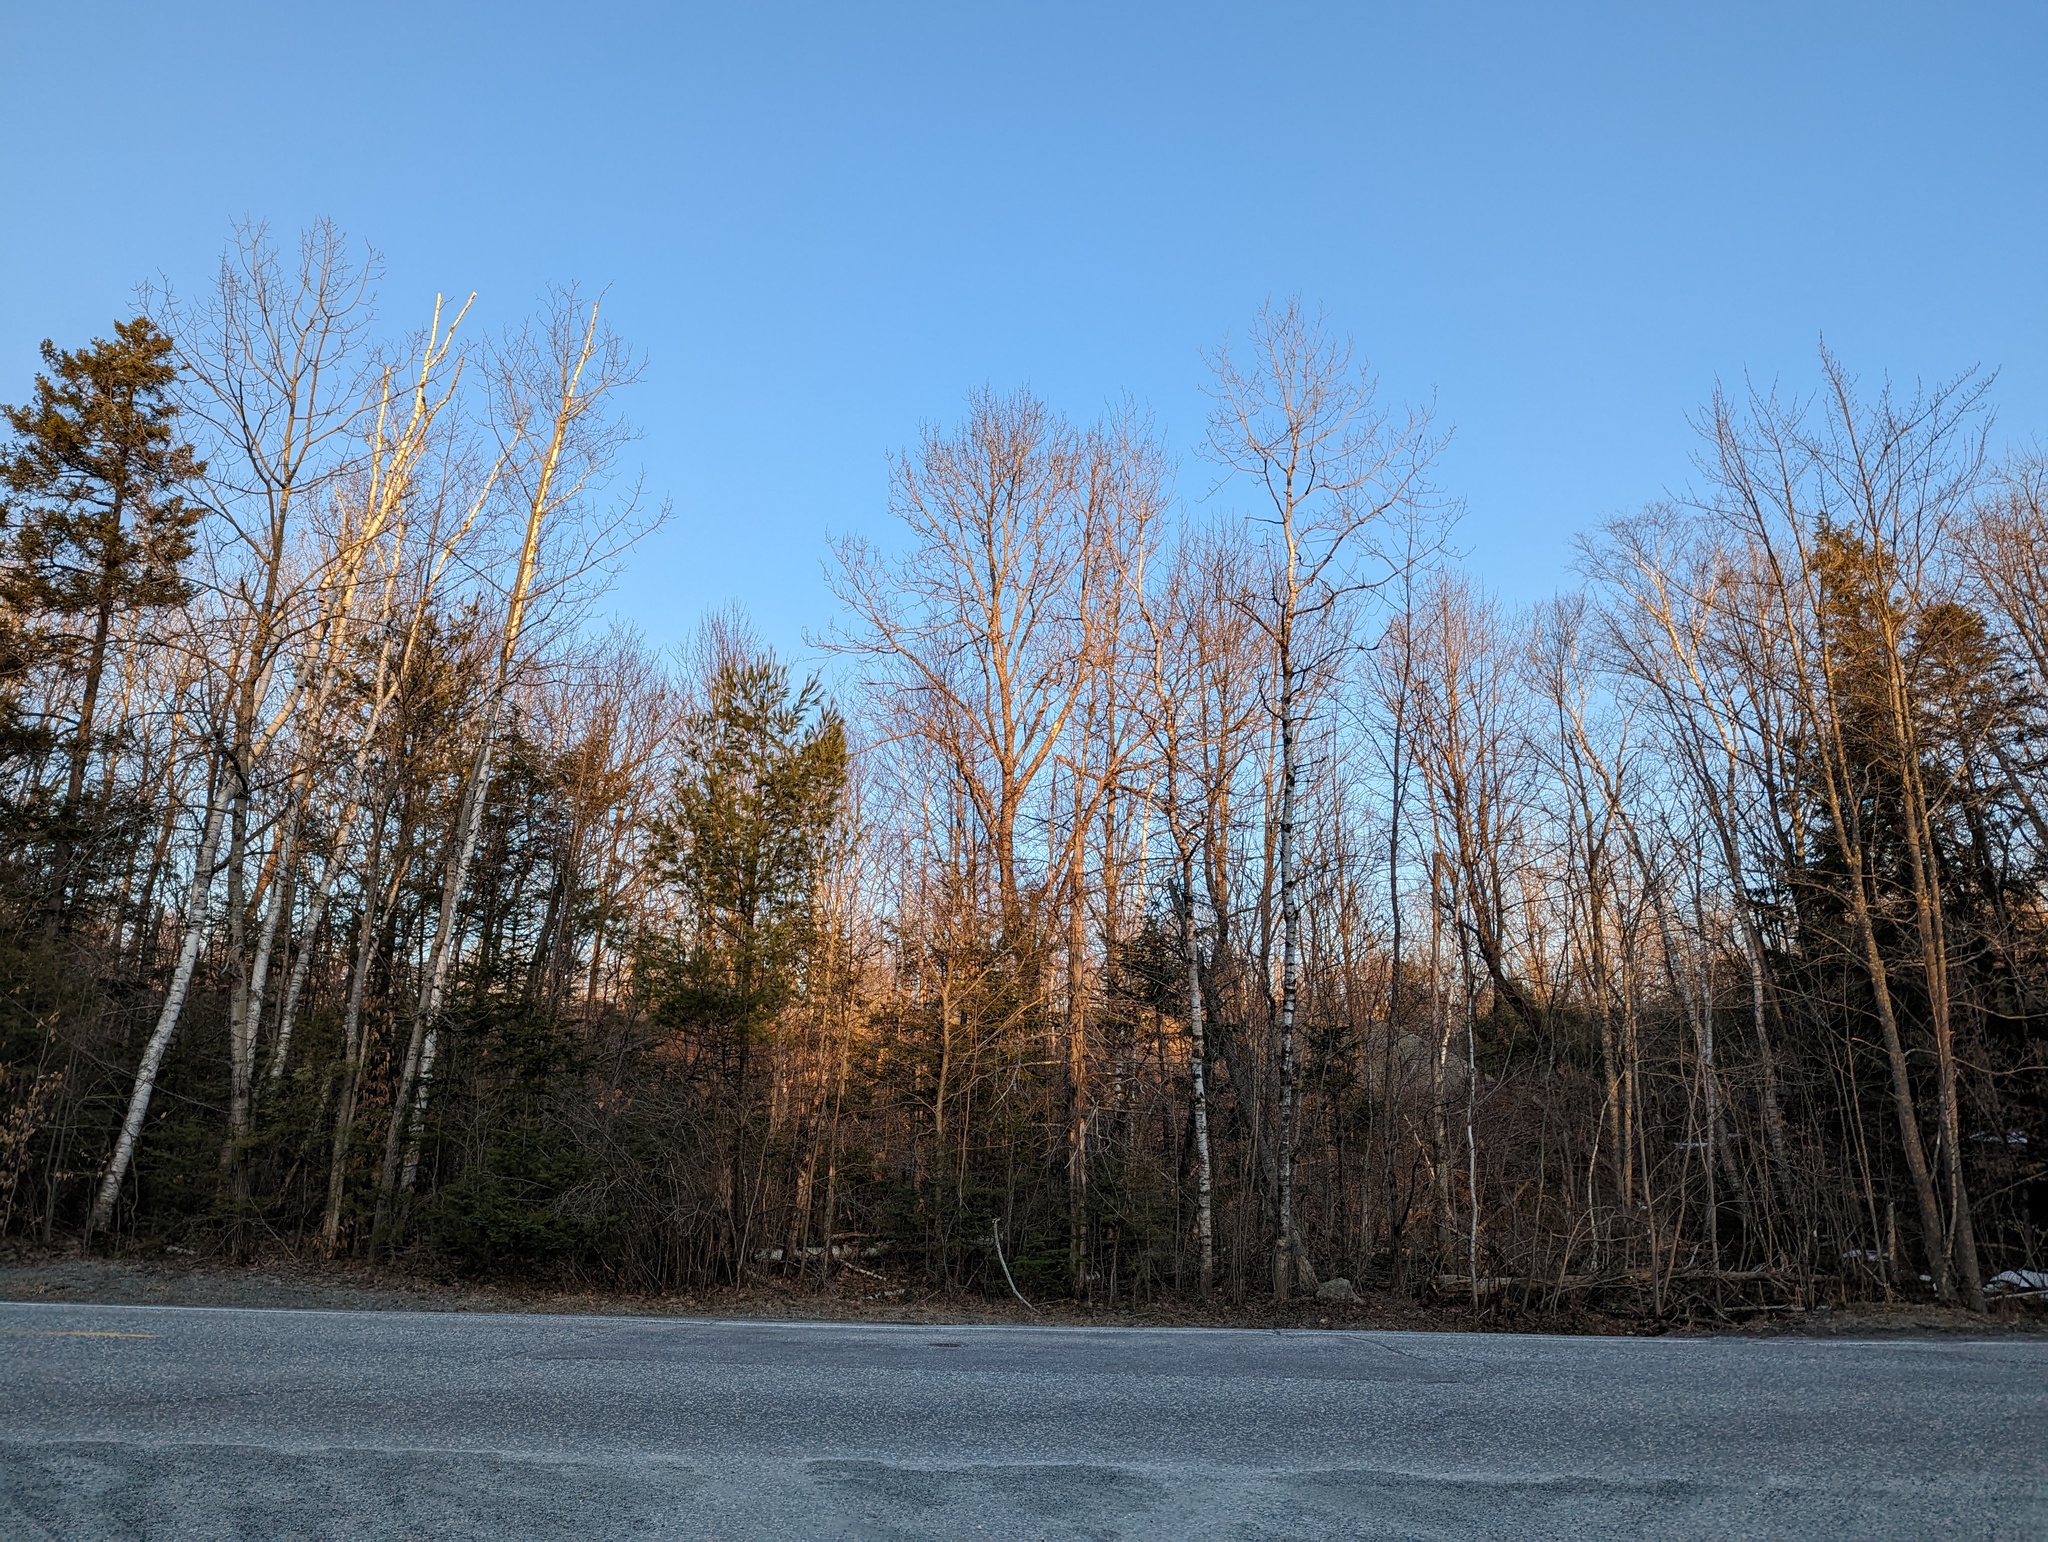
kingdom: Plantae
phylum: Tracheophyta
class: Pinopsida
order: Pinales
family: Pinaceae
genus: Pinus
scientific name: Pinus strobus
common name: Weymouth pine
